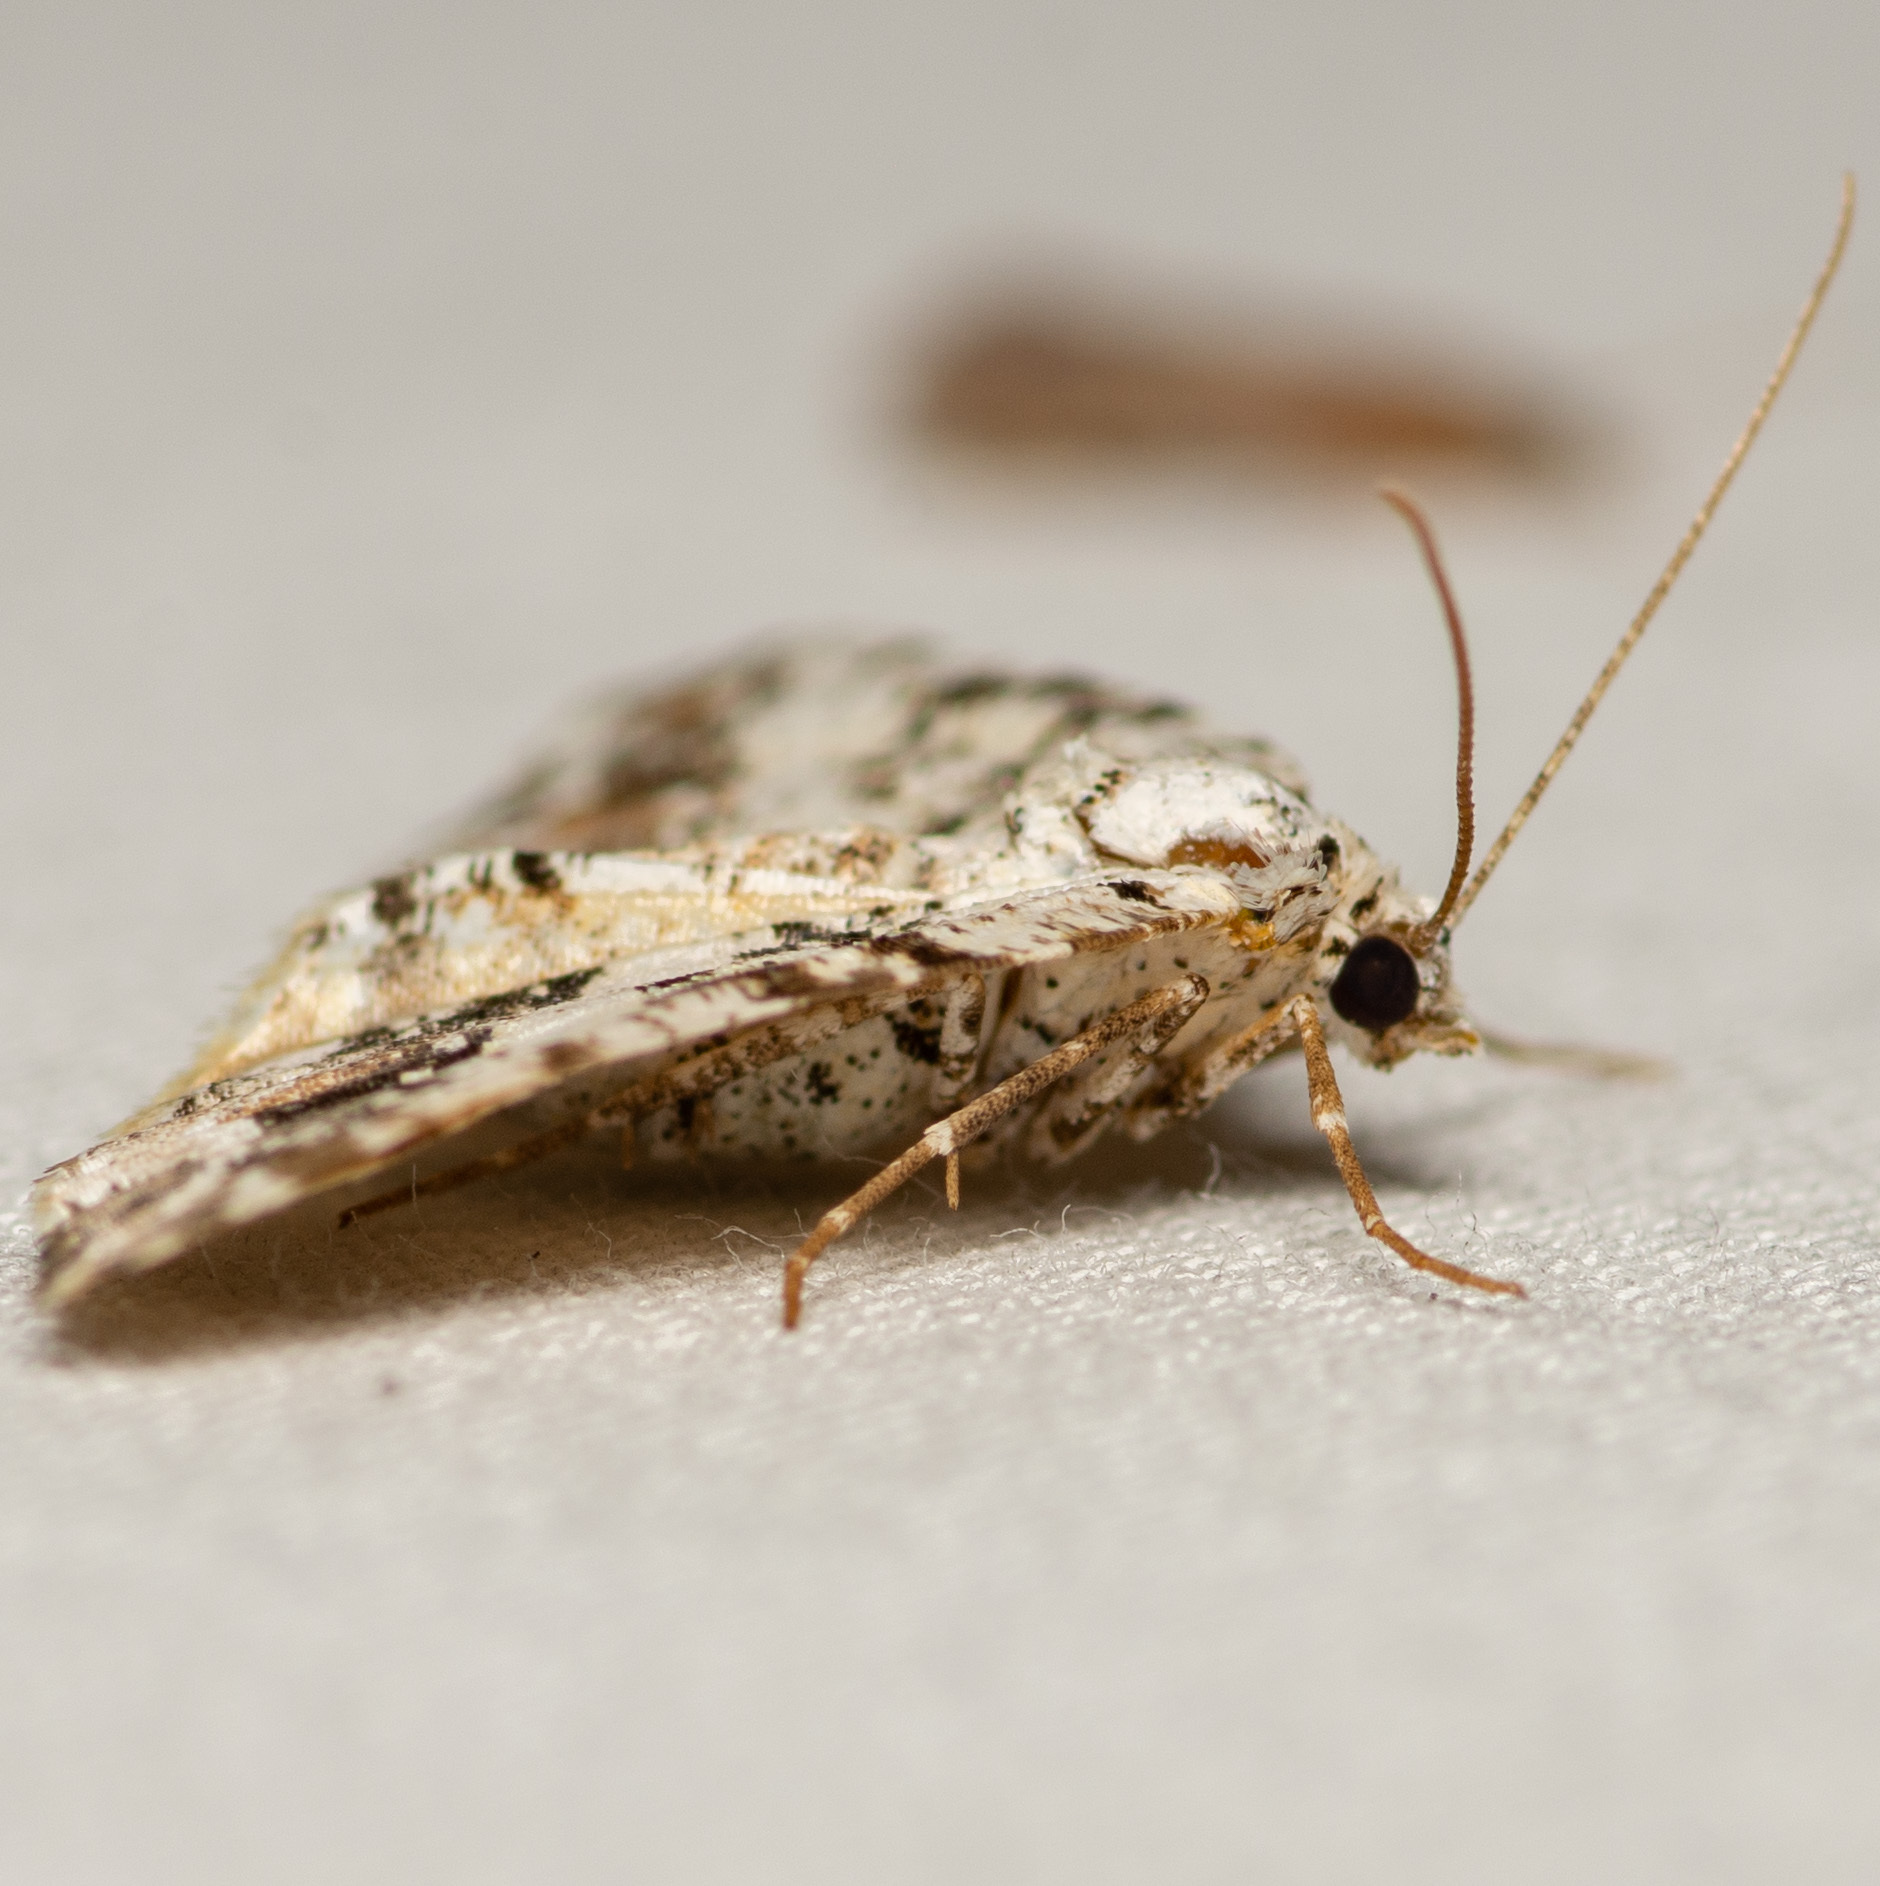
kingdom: Animalia
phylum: Arthropoda
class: Insecta
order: Lepidoptera
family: Geometridae
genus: Macaria
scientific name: Macaria graphidaria
